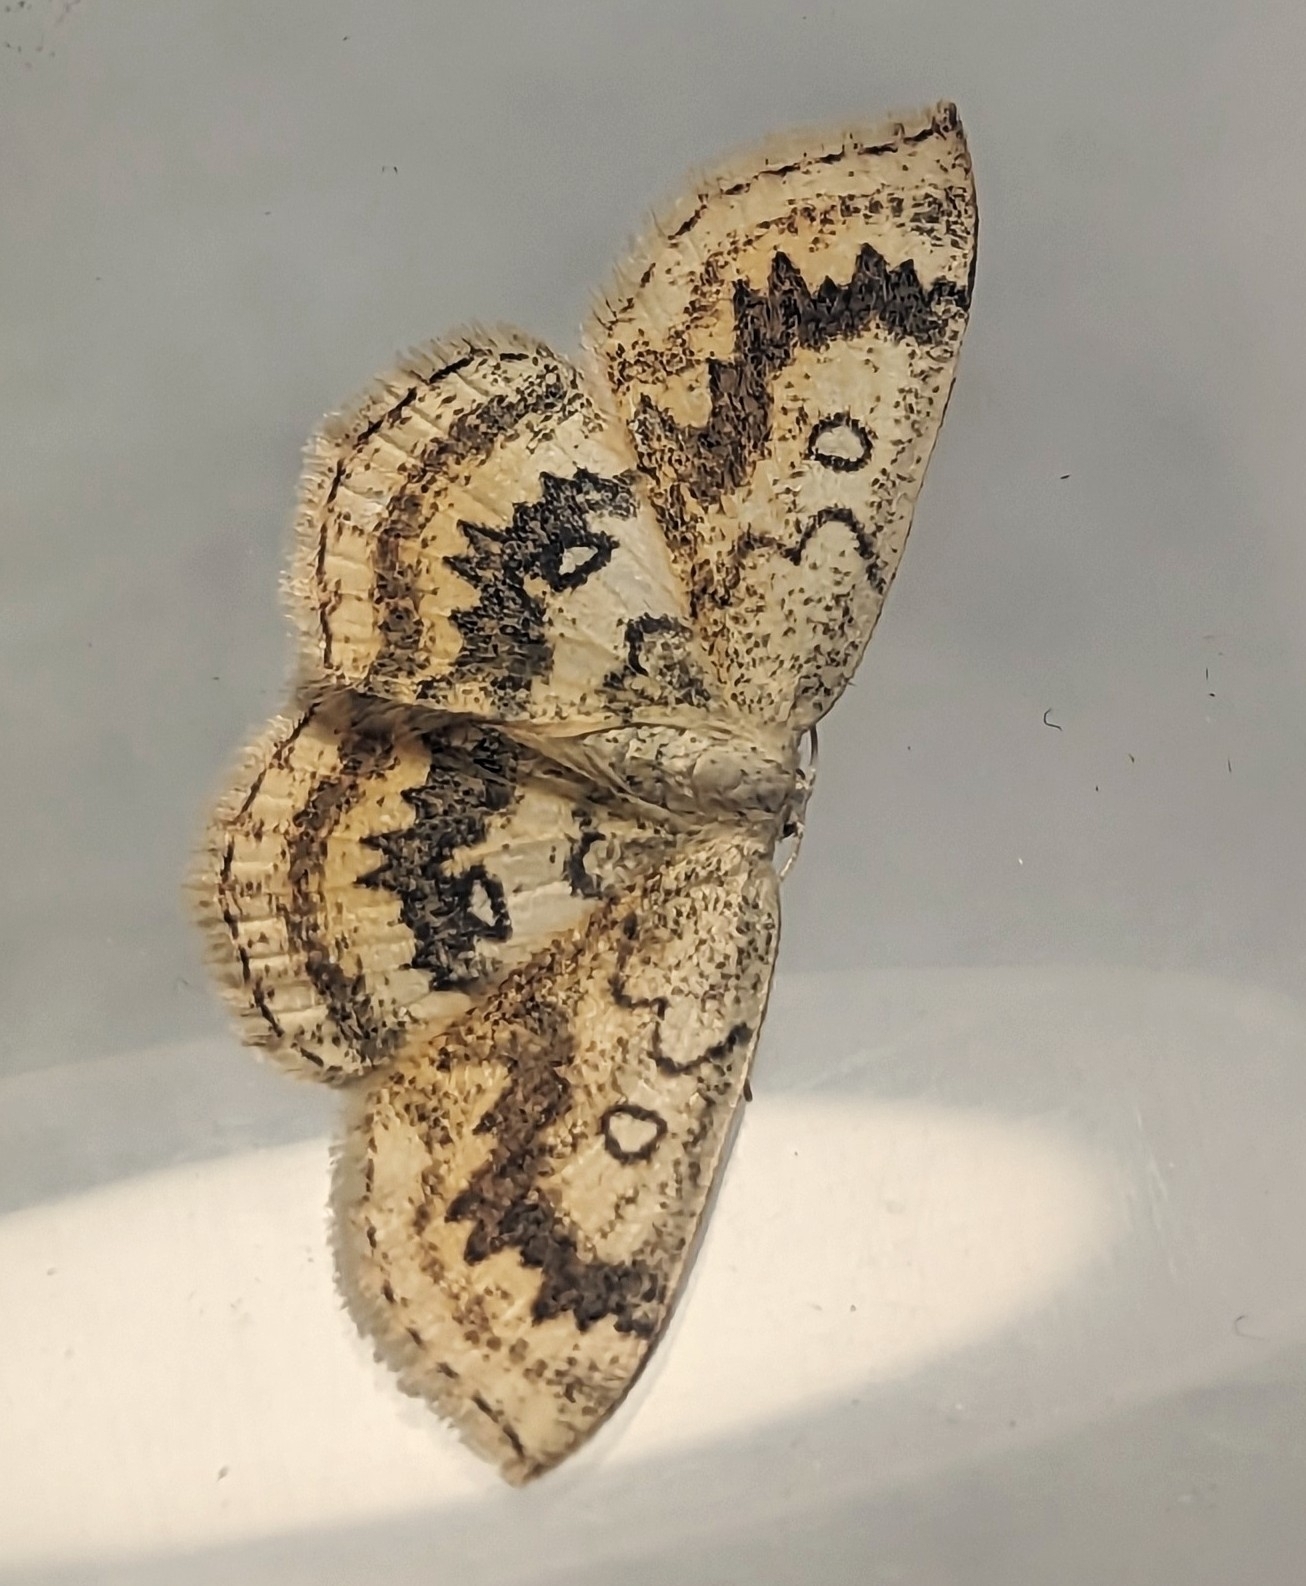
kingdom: Animalia
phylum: Arthropoda
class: Insecta
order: Lepidoptera
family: Geometridae
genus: Cyclophora
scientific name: Cyclophora annularia
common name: Mocha
